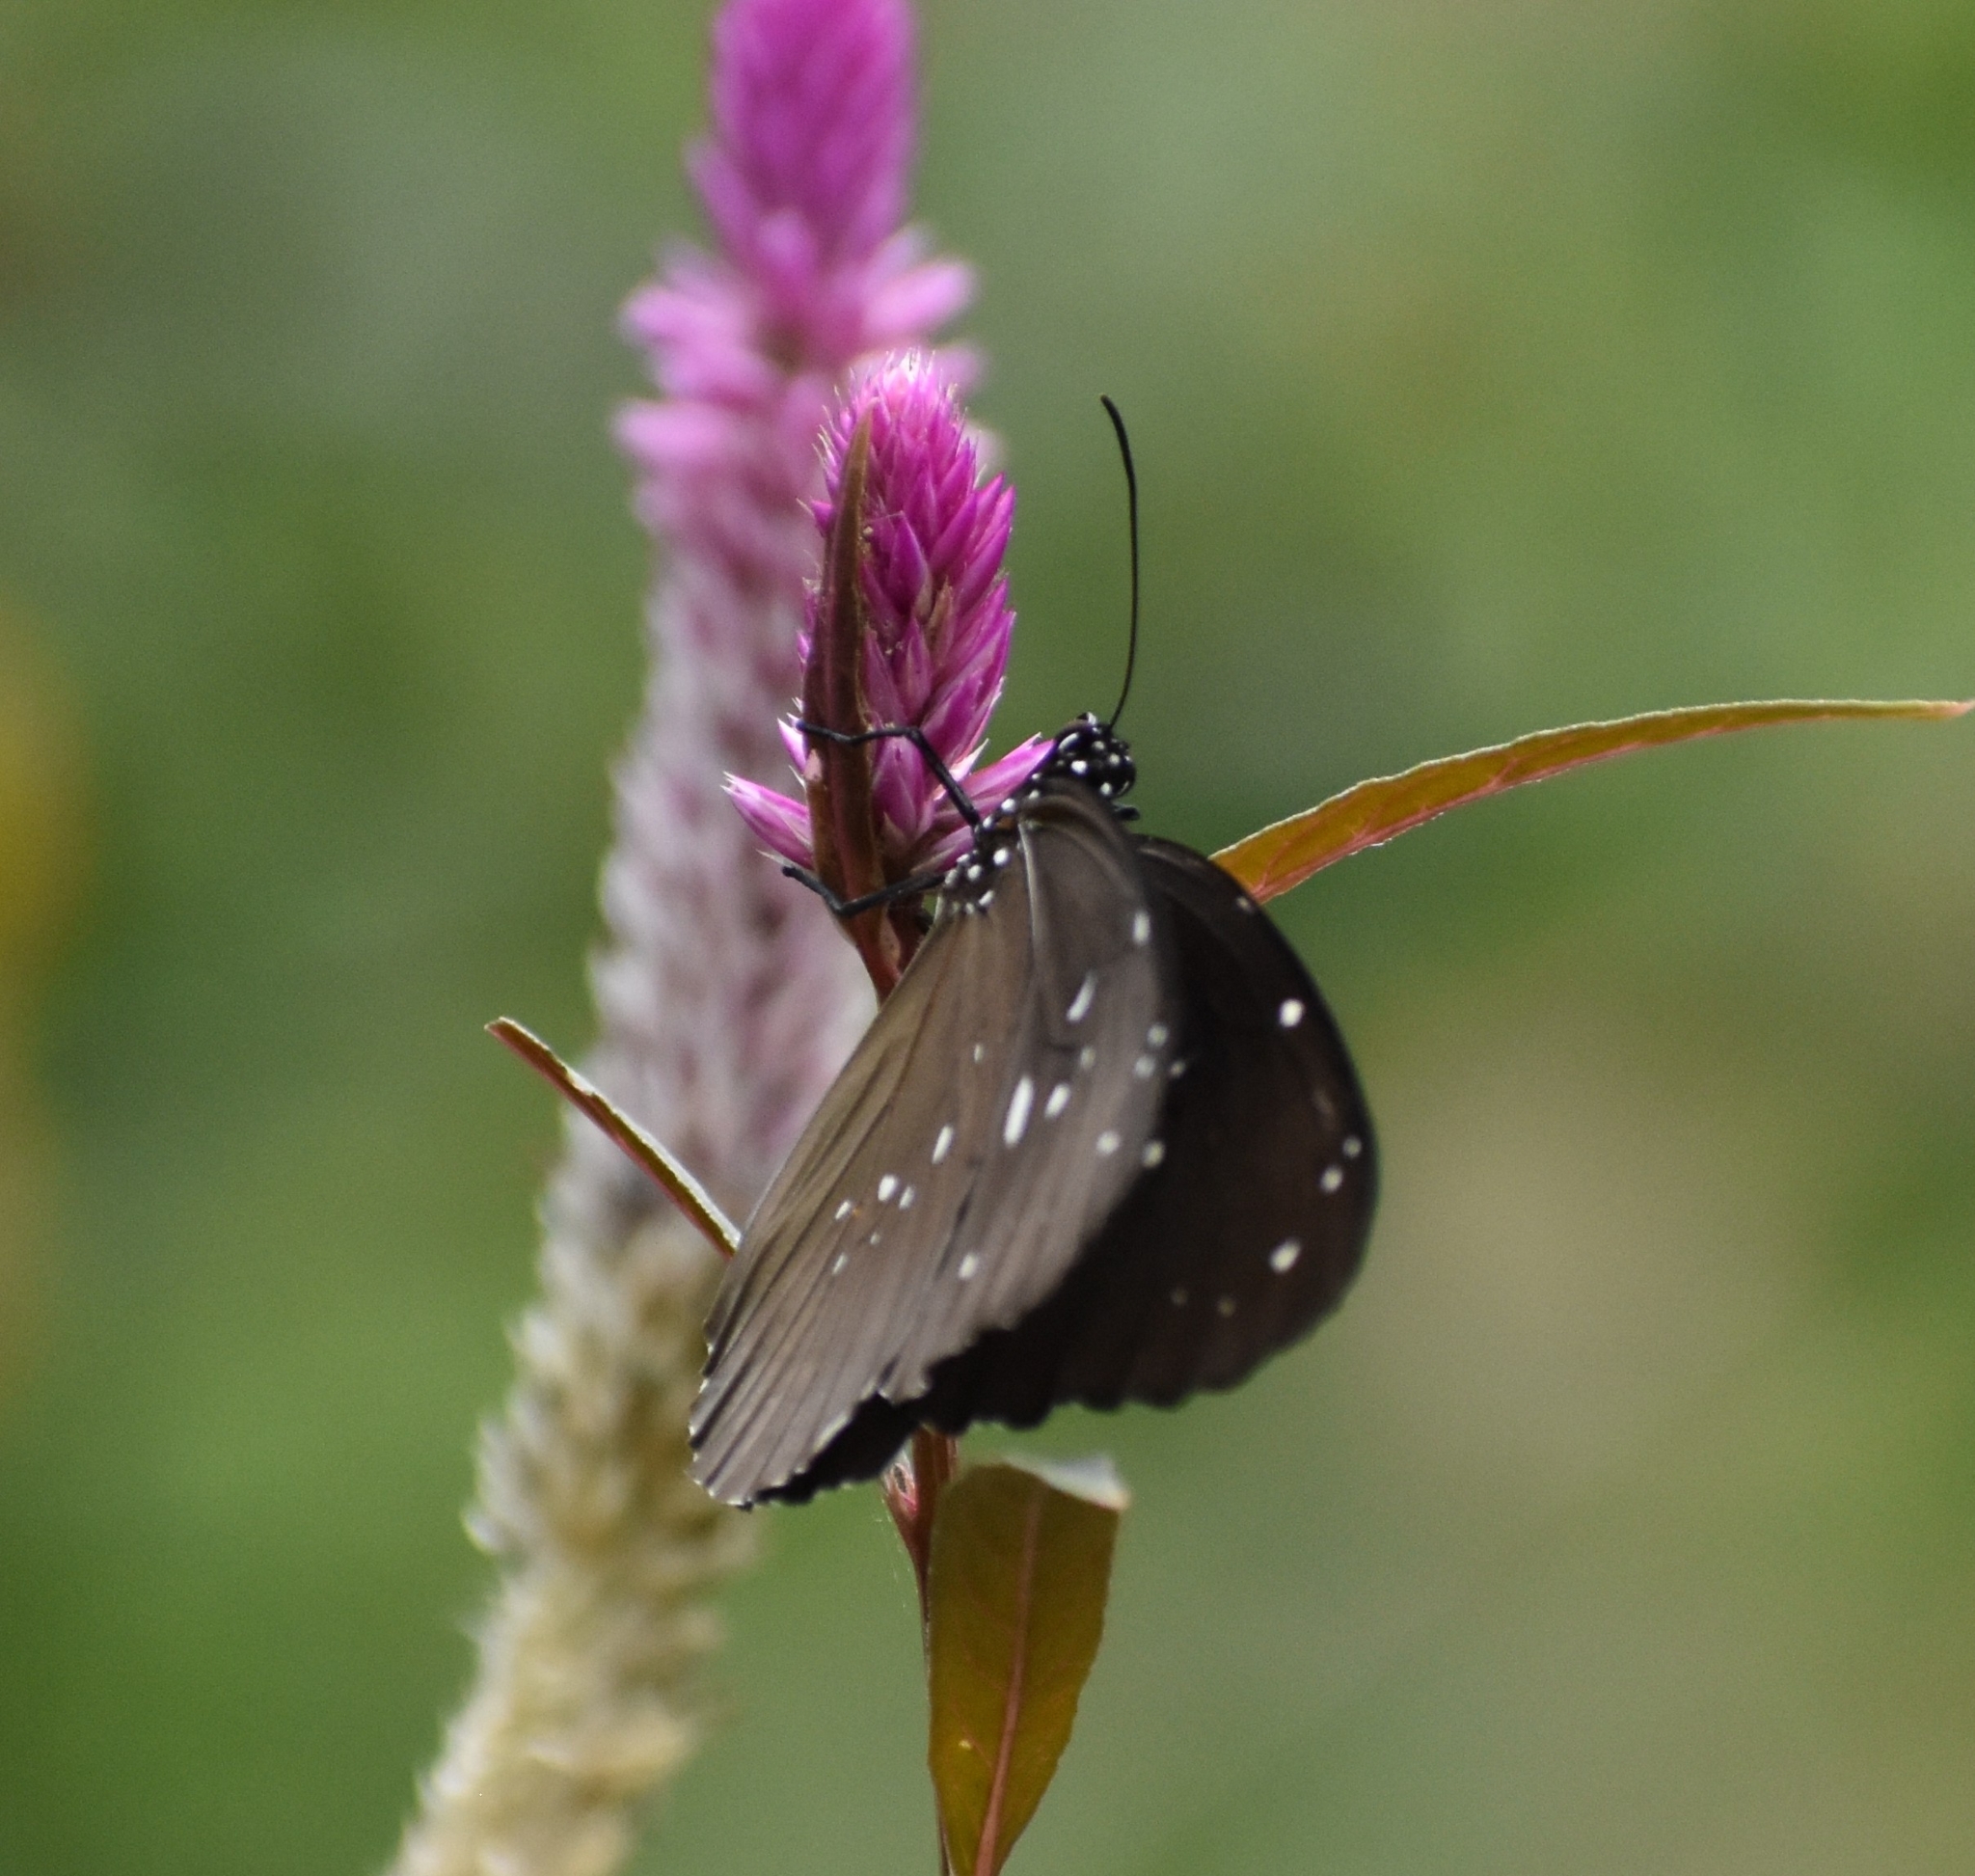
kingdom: Animalia
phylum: Arthropoda
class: Insecta
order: Lepidoptera
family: Nymphalidae
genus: Euploea
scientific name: Euploea core
